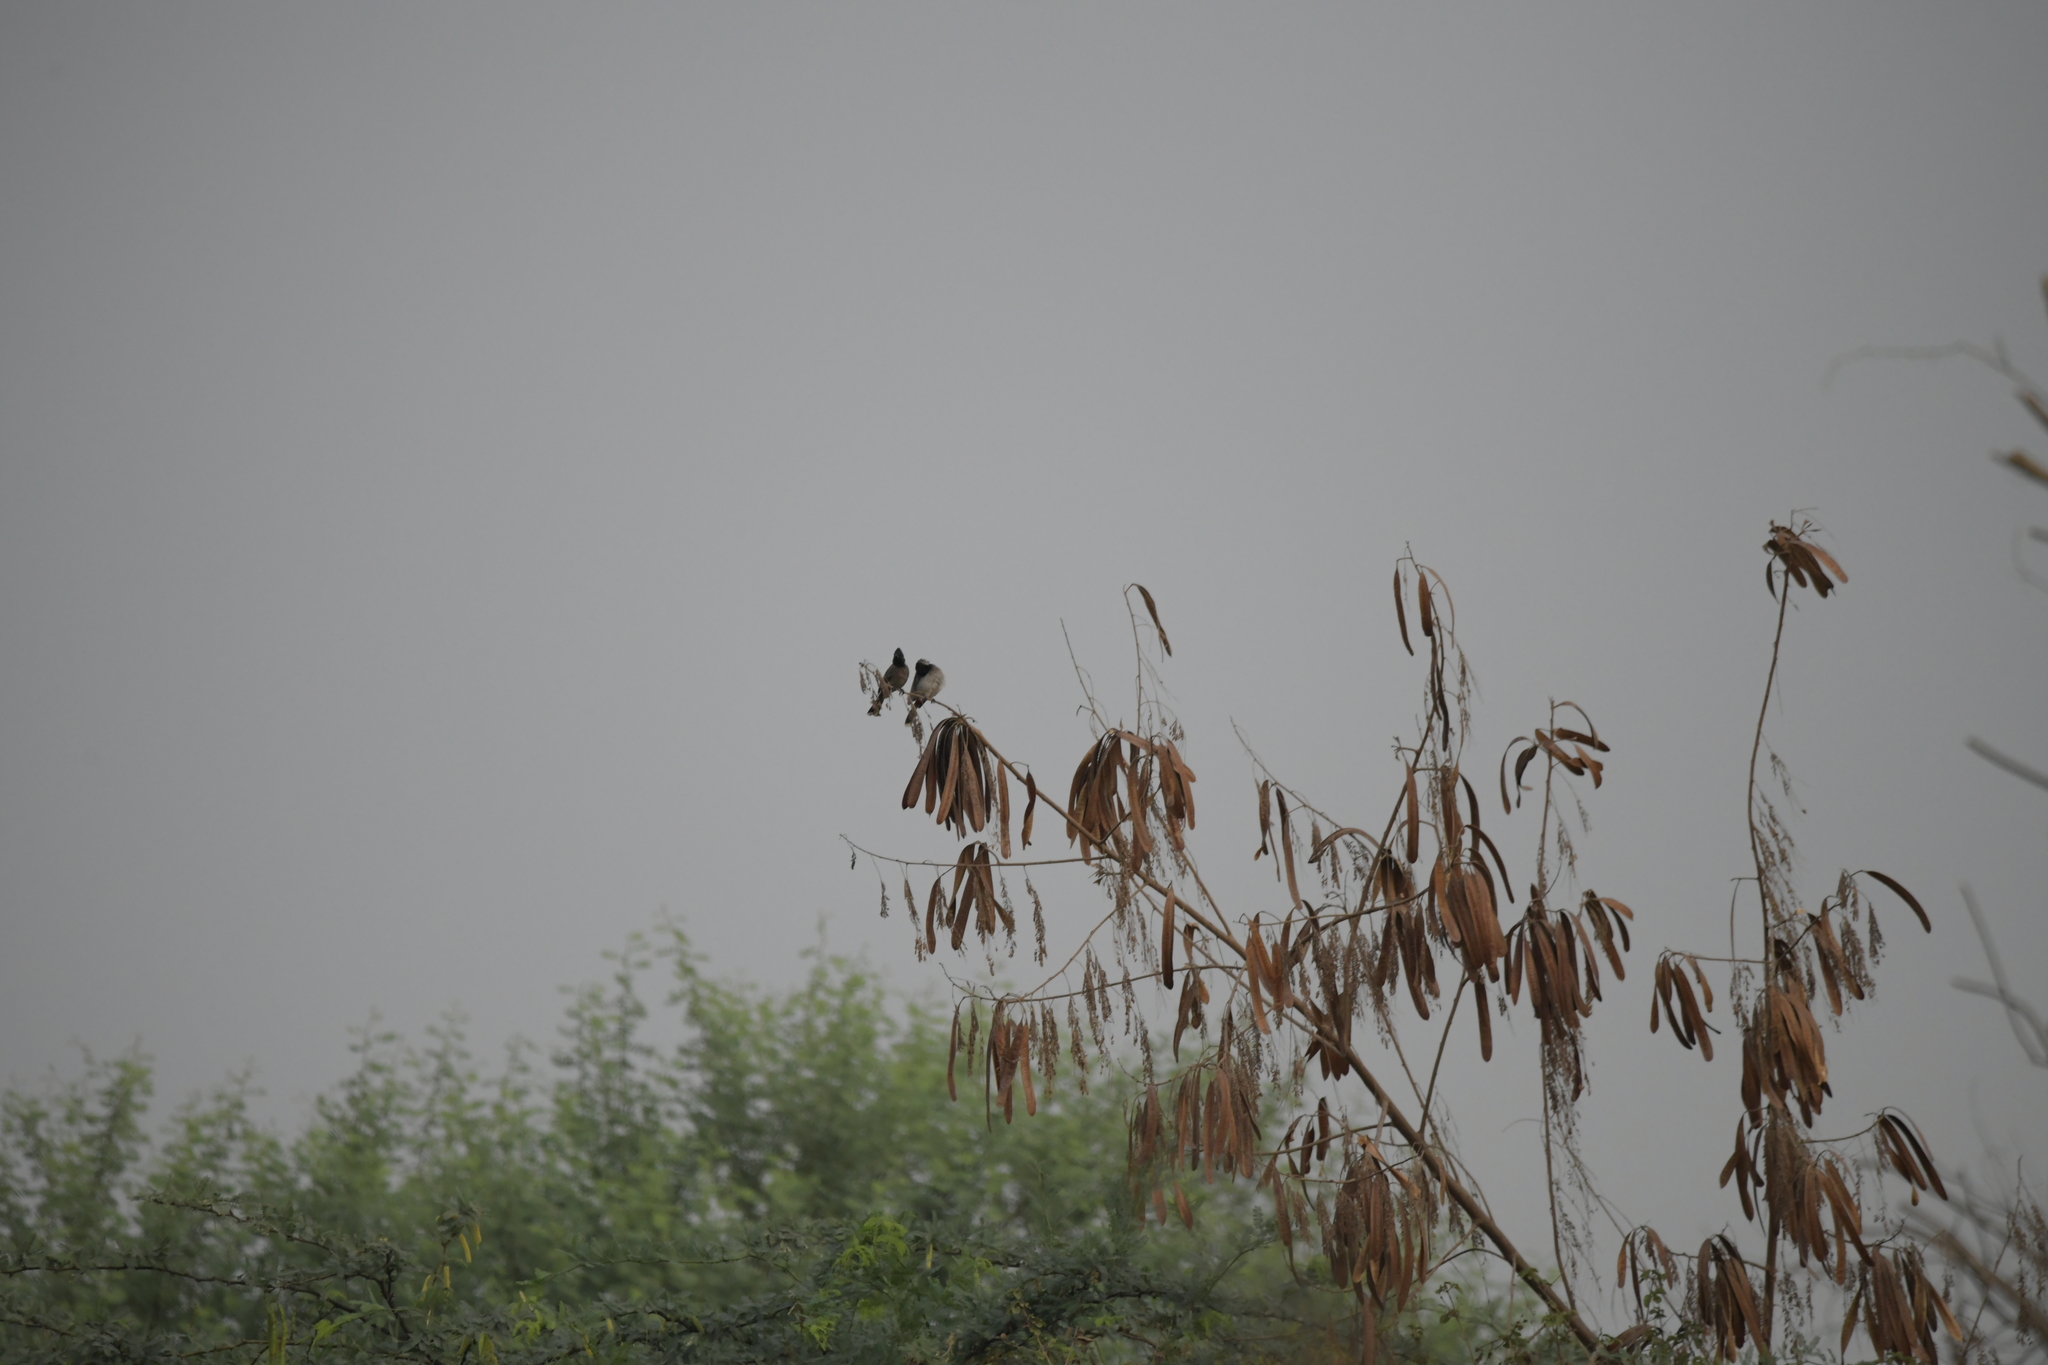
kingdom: Animalia
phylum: Chordata
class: Aves
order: Passeriformes
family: Pycnonotidae
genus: Pycnonotus
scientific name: Pycnonotus cafer
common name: Red-vented bulbul
